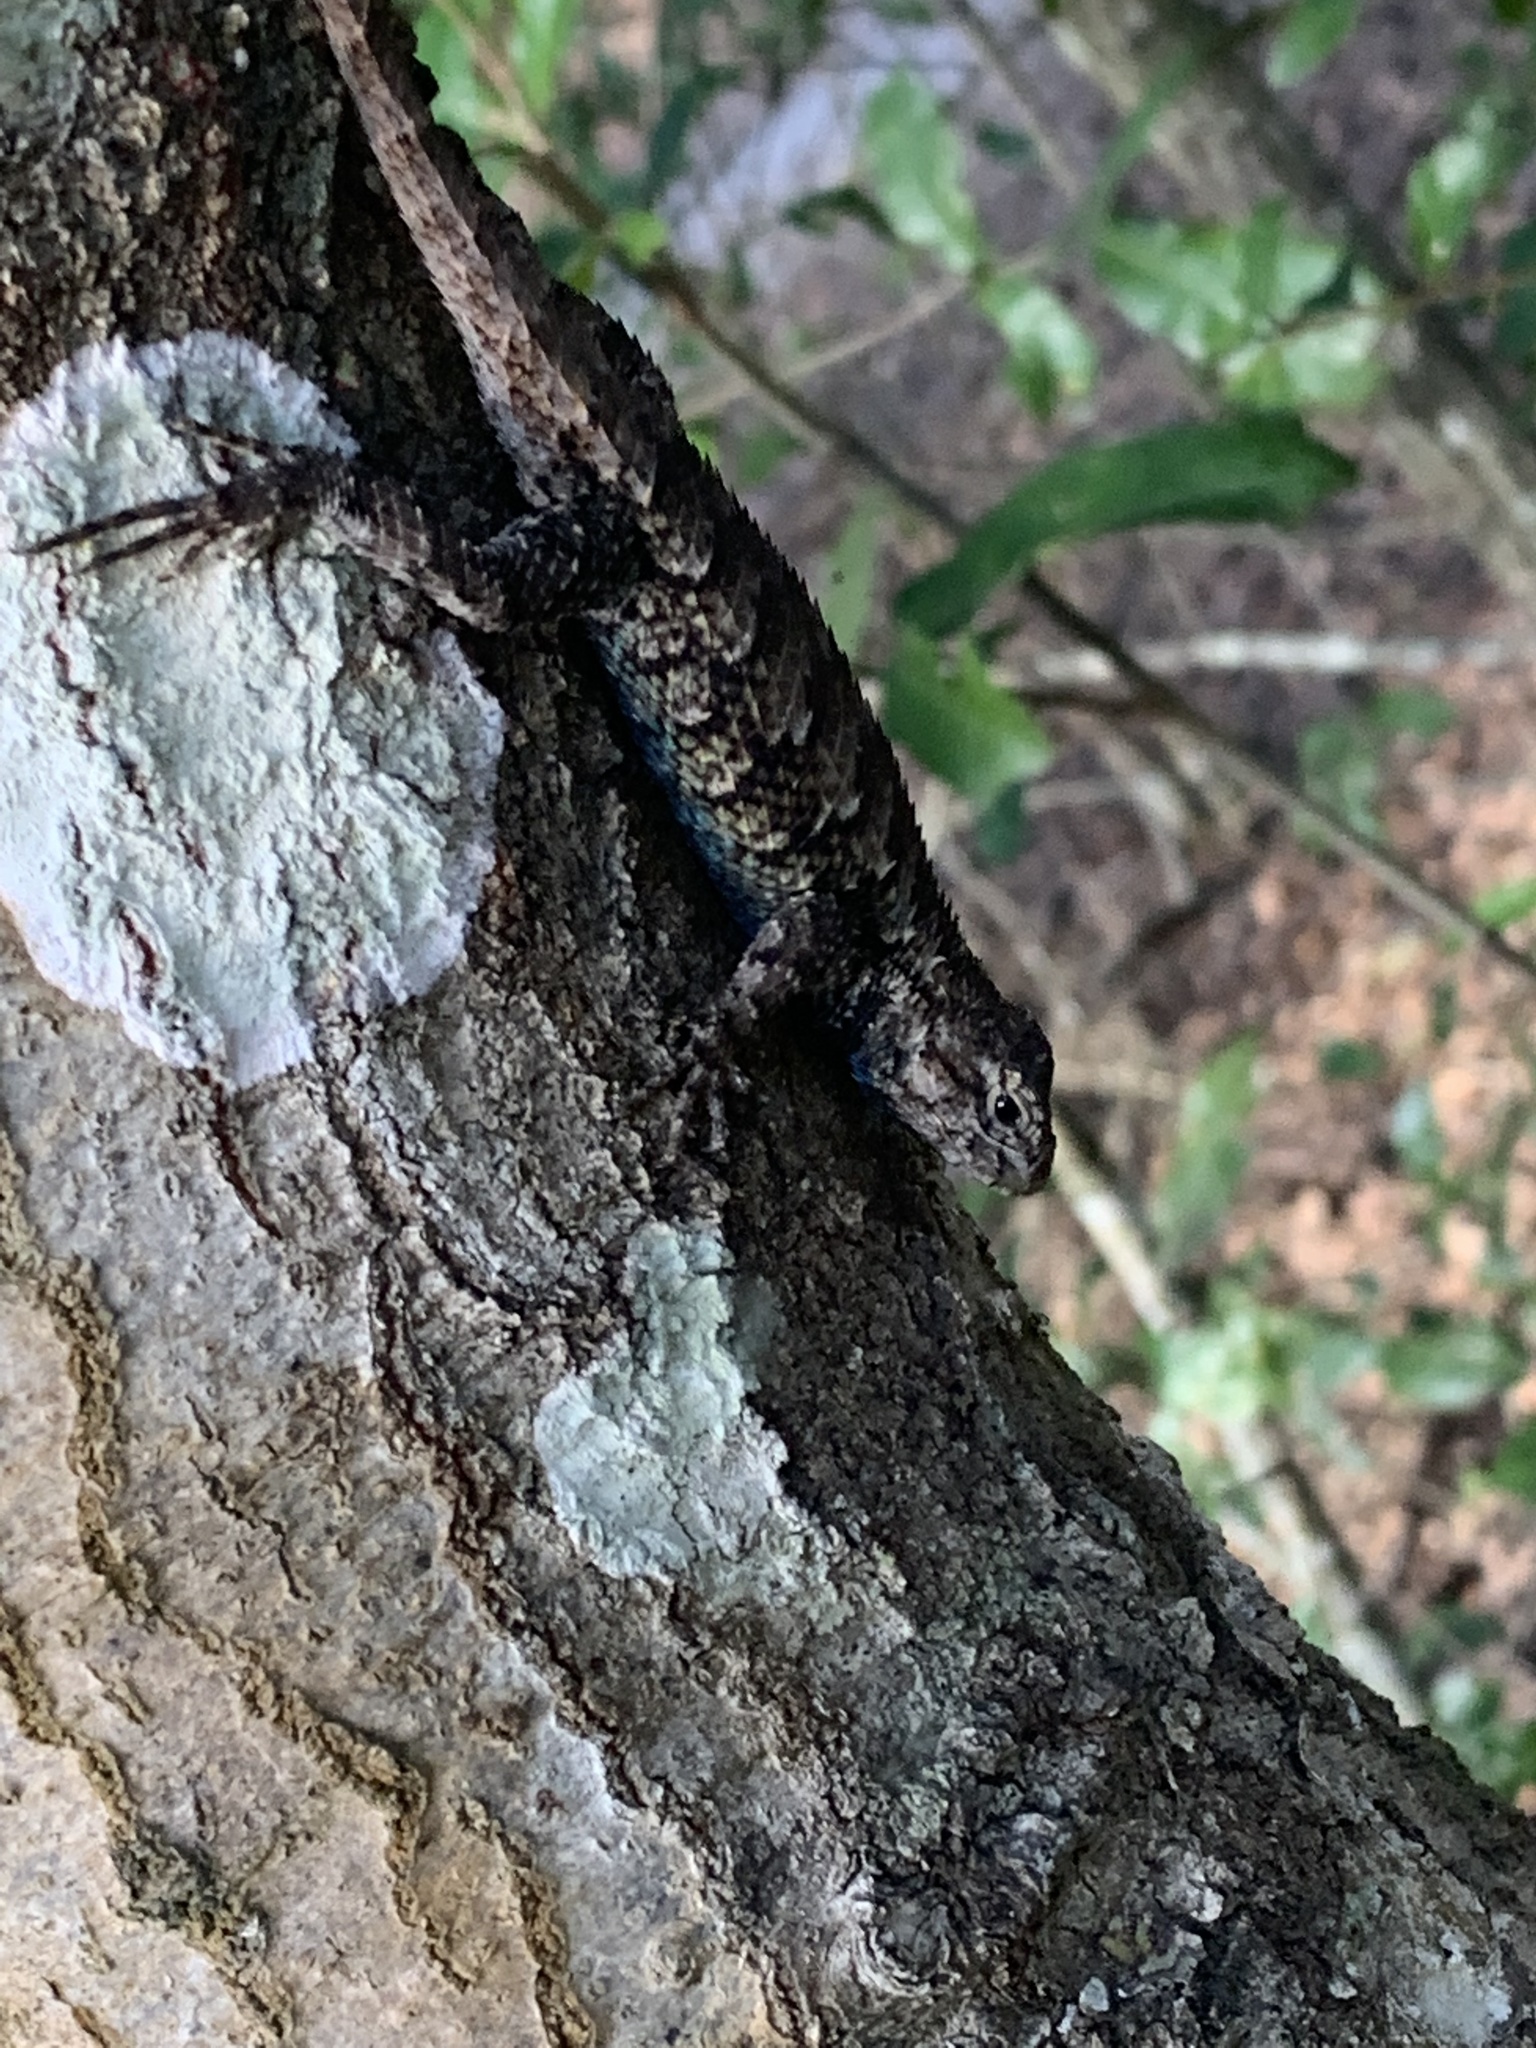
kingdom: Animalia
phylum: Chordata
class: Squamata
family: Phrynosomatidae
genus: Sceloporus
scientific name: Sceloporus undulatus
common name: Eastern fence lizard
